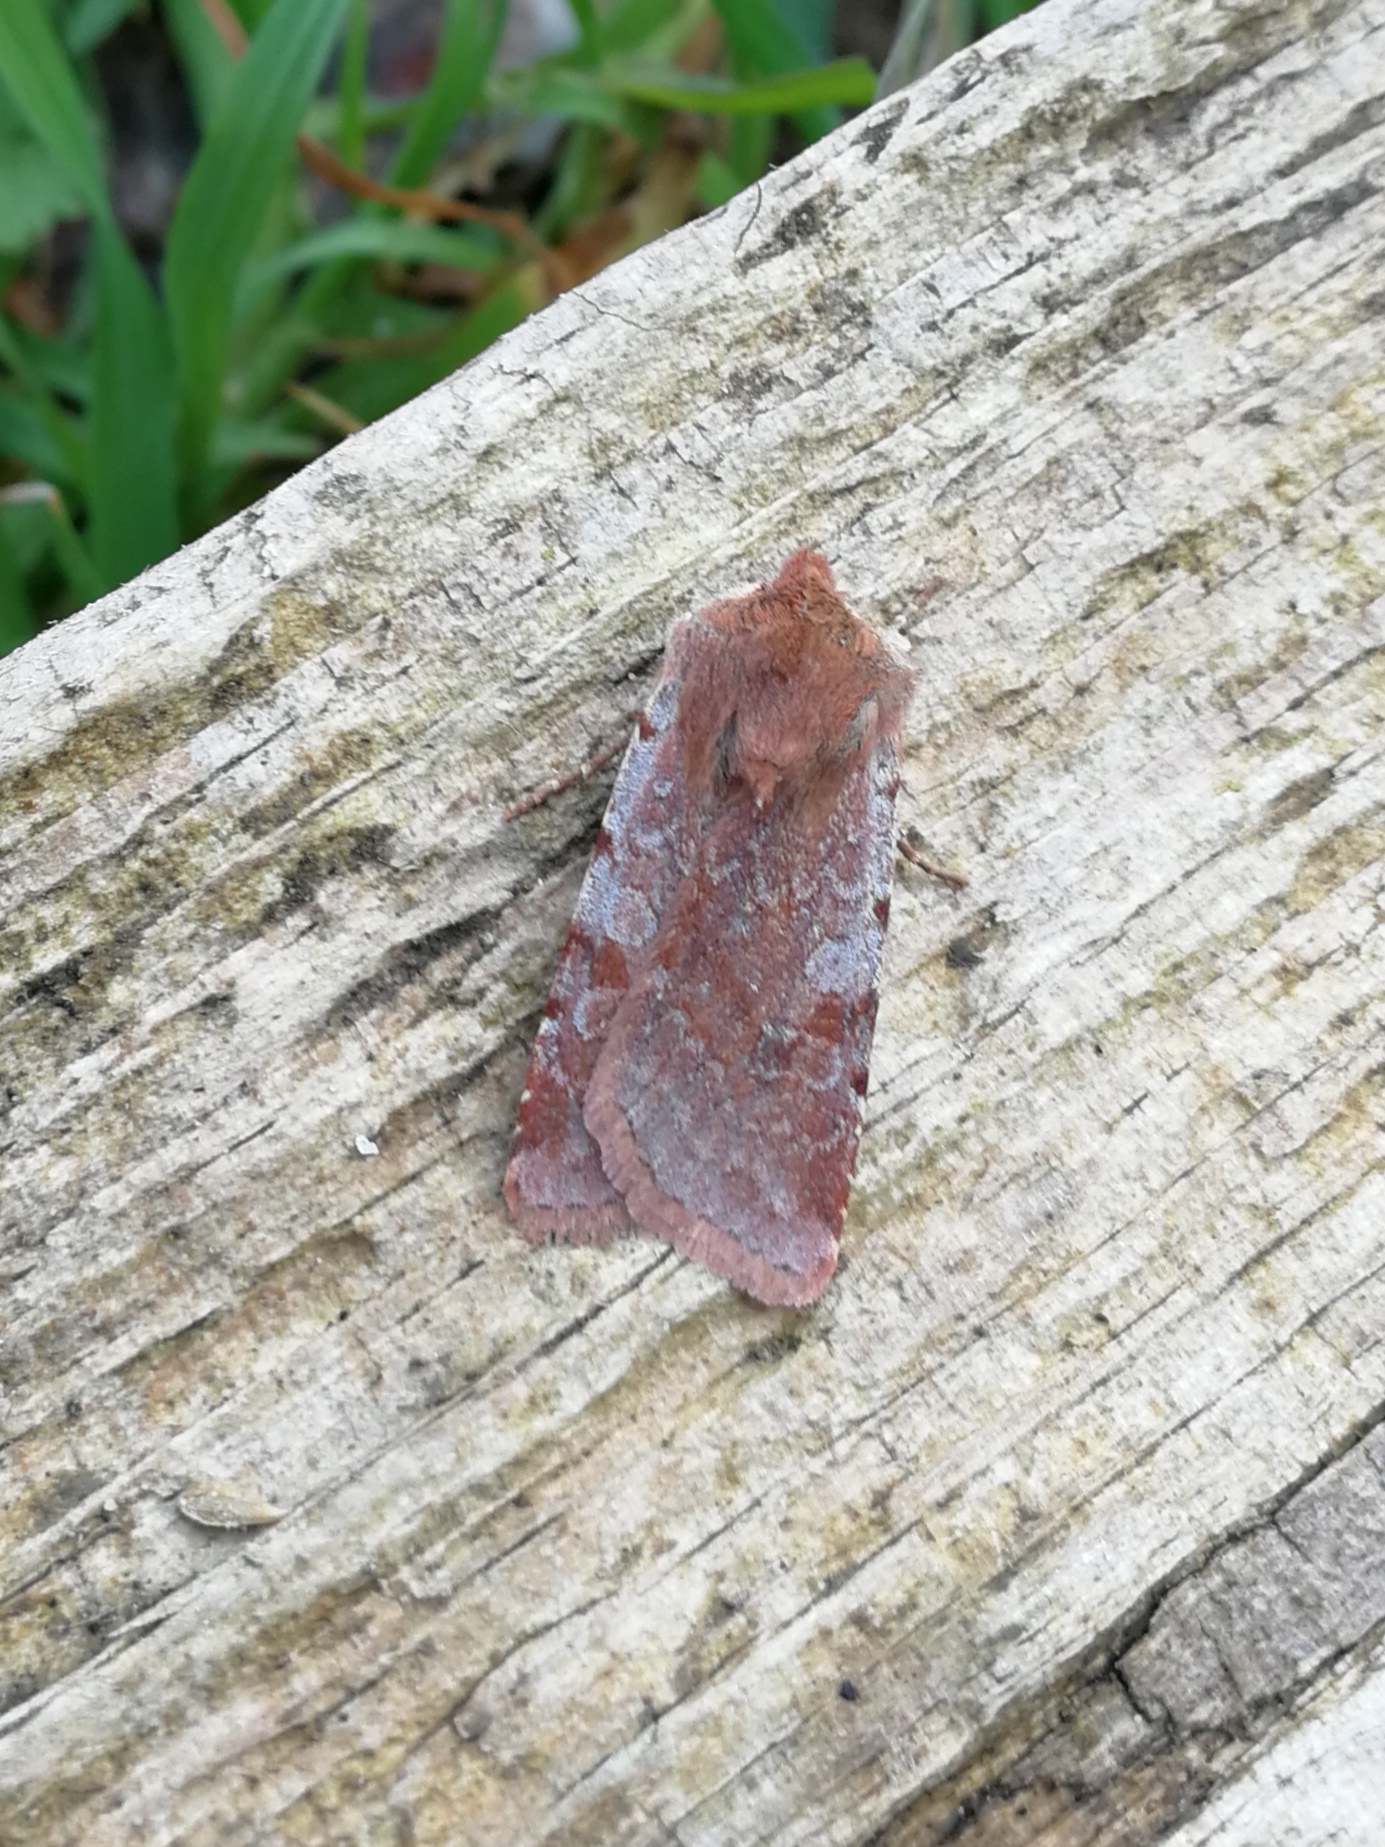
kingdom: Animalia
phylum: Arthropoda
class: Insecta
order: Lepidoptera
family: Noctuidae
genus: Cerastis
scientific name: Cerastis rubricosa
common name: Red chestnut
